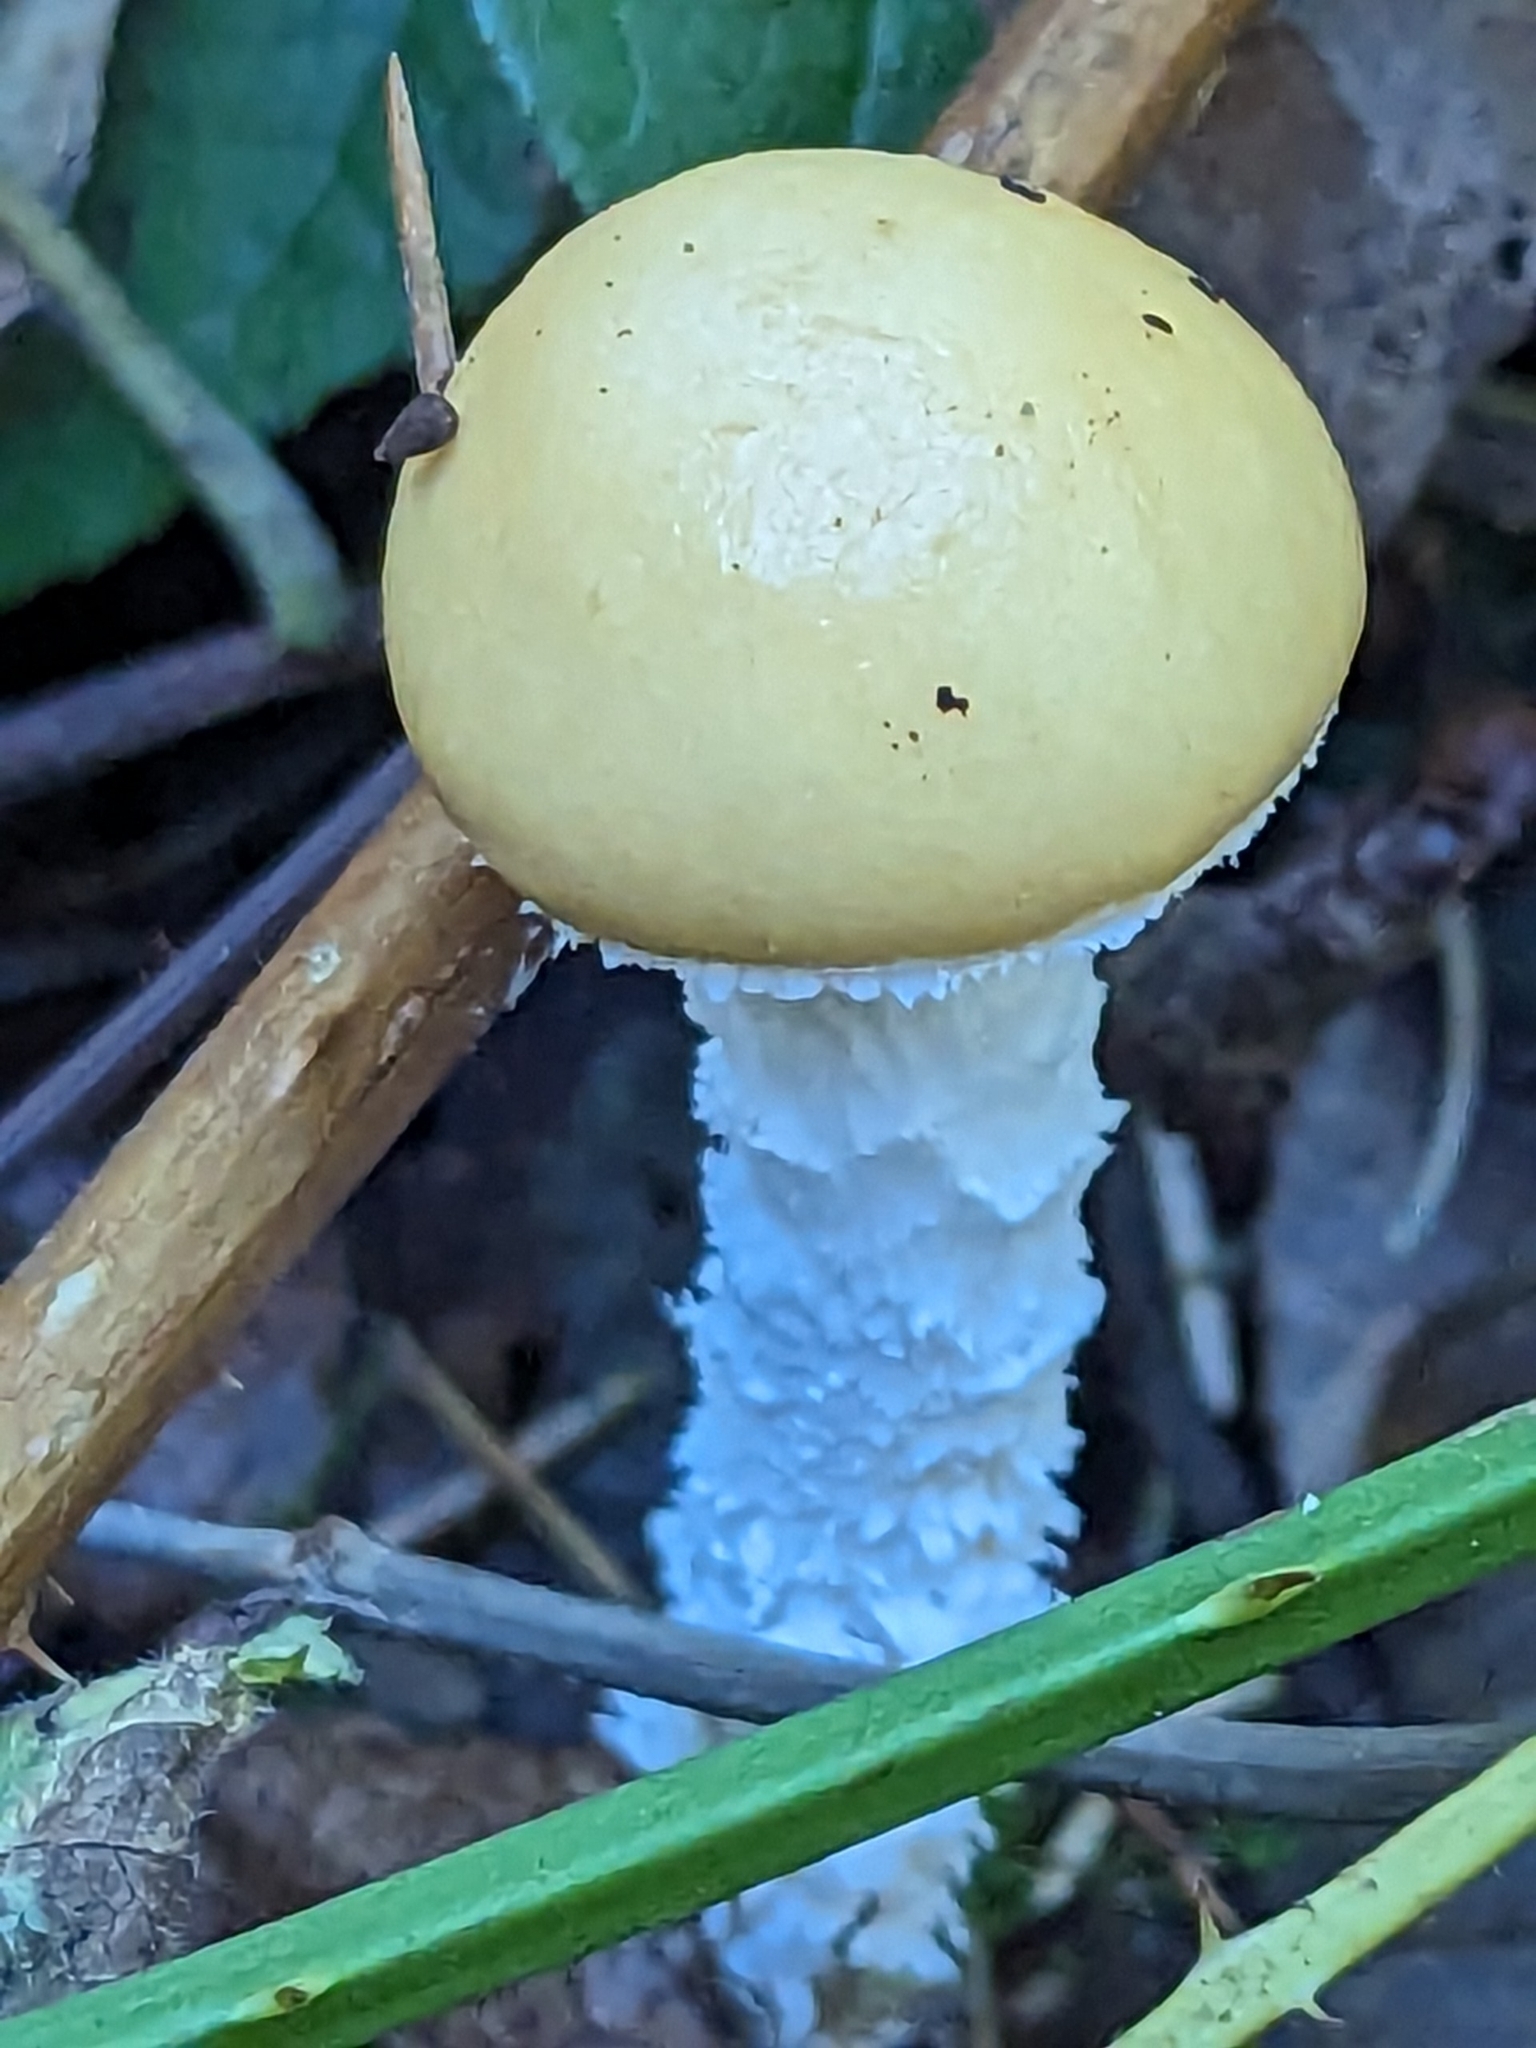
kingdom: Fungi
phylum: Basidiomycota
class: Agaricomycetes
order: Agaricales
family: Strophariaceae
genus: Stropharia
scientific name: Stropharia ambigua
